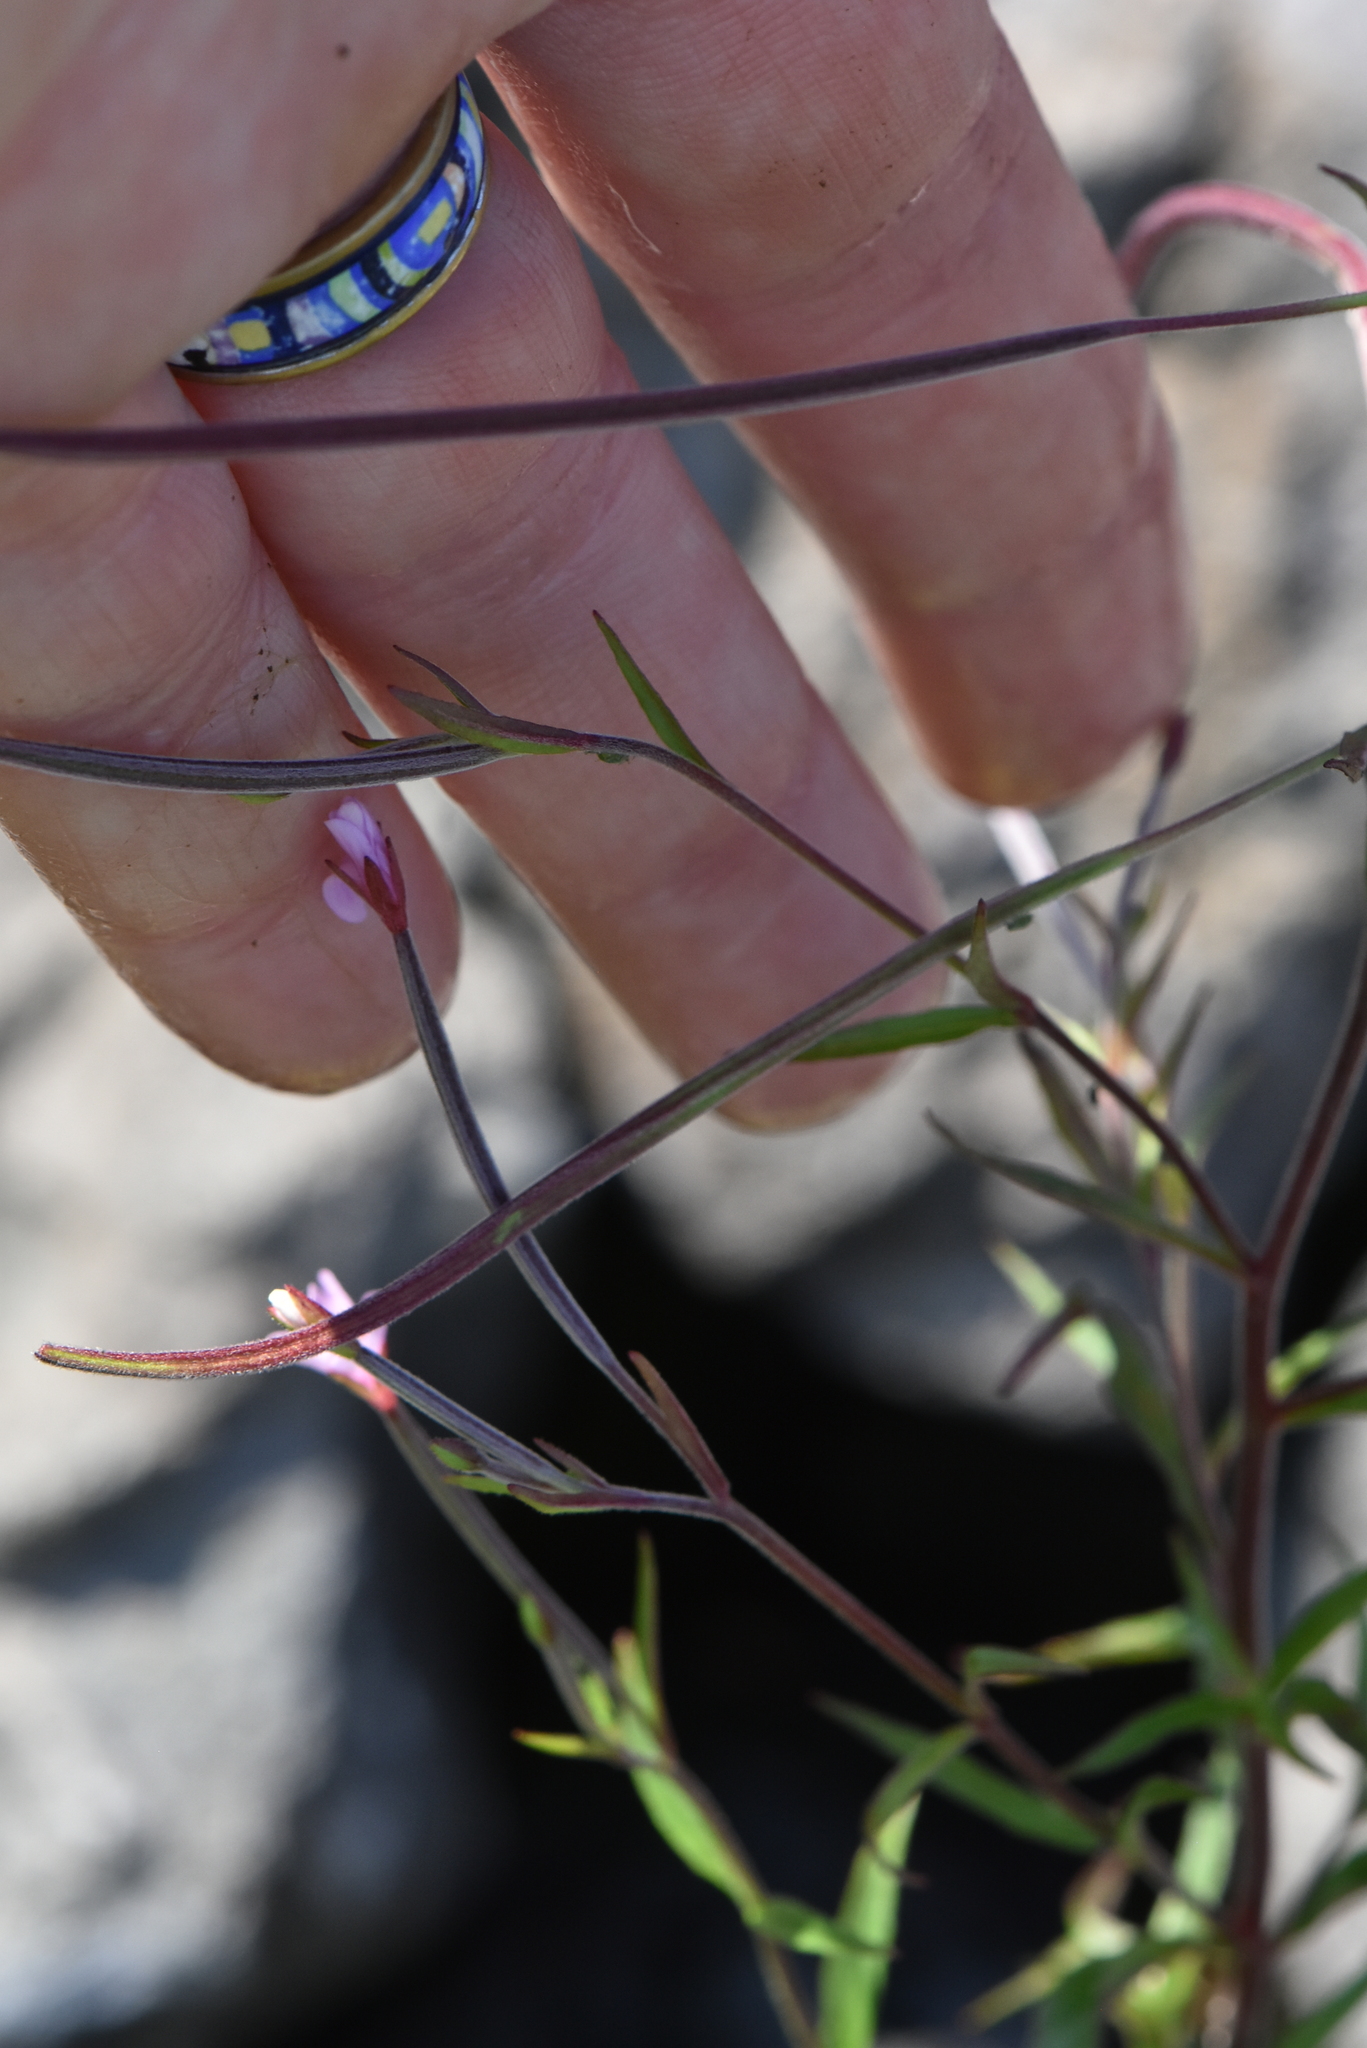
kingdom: Plantae
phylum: Tracheophyta
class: Magnoliopsida
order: Myrtales
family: Onagraceae
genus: Epilobium
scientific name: Epilobium palustre
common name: Marsh willowherb
